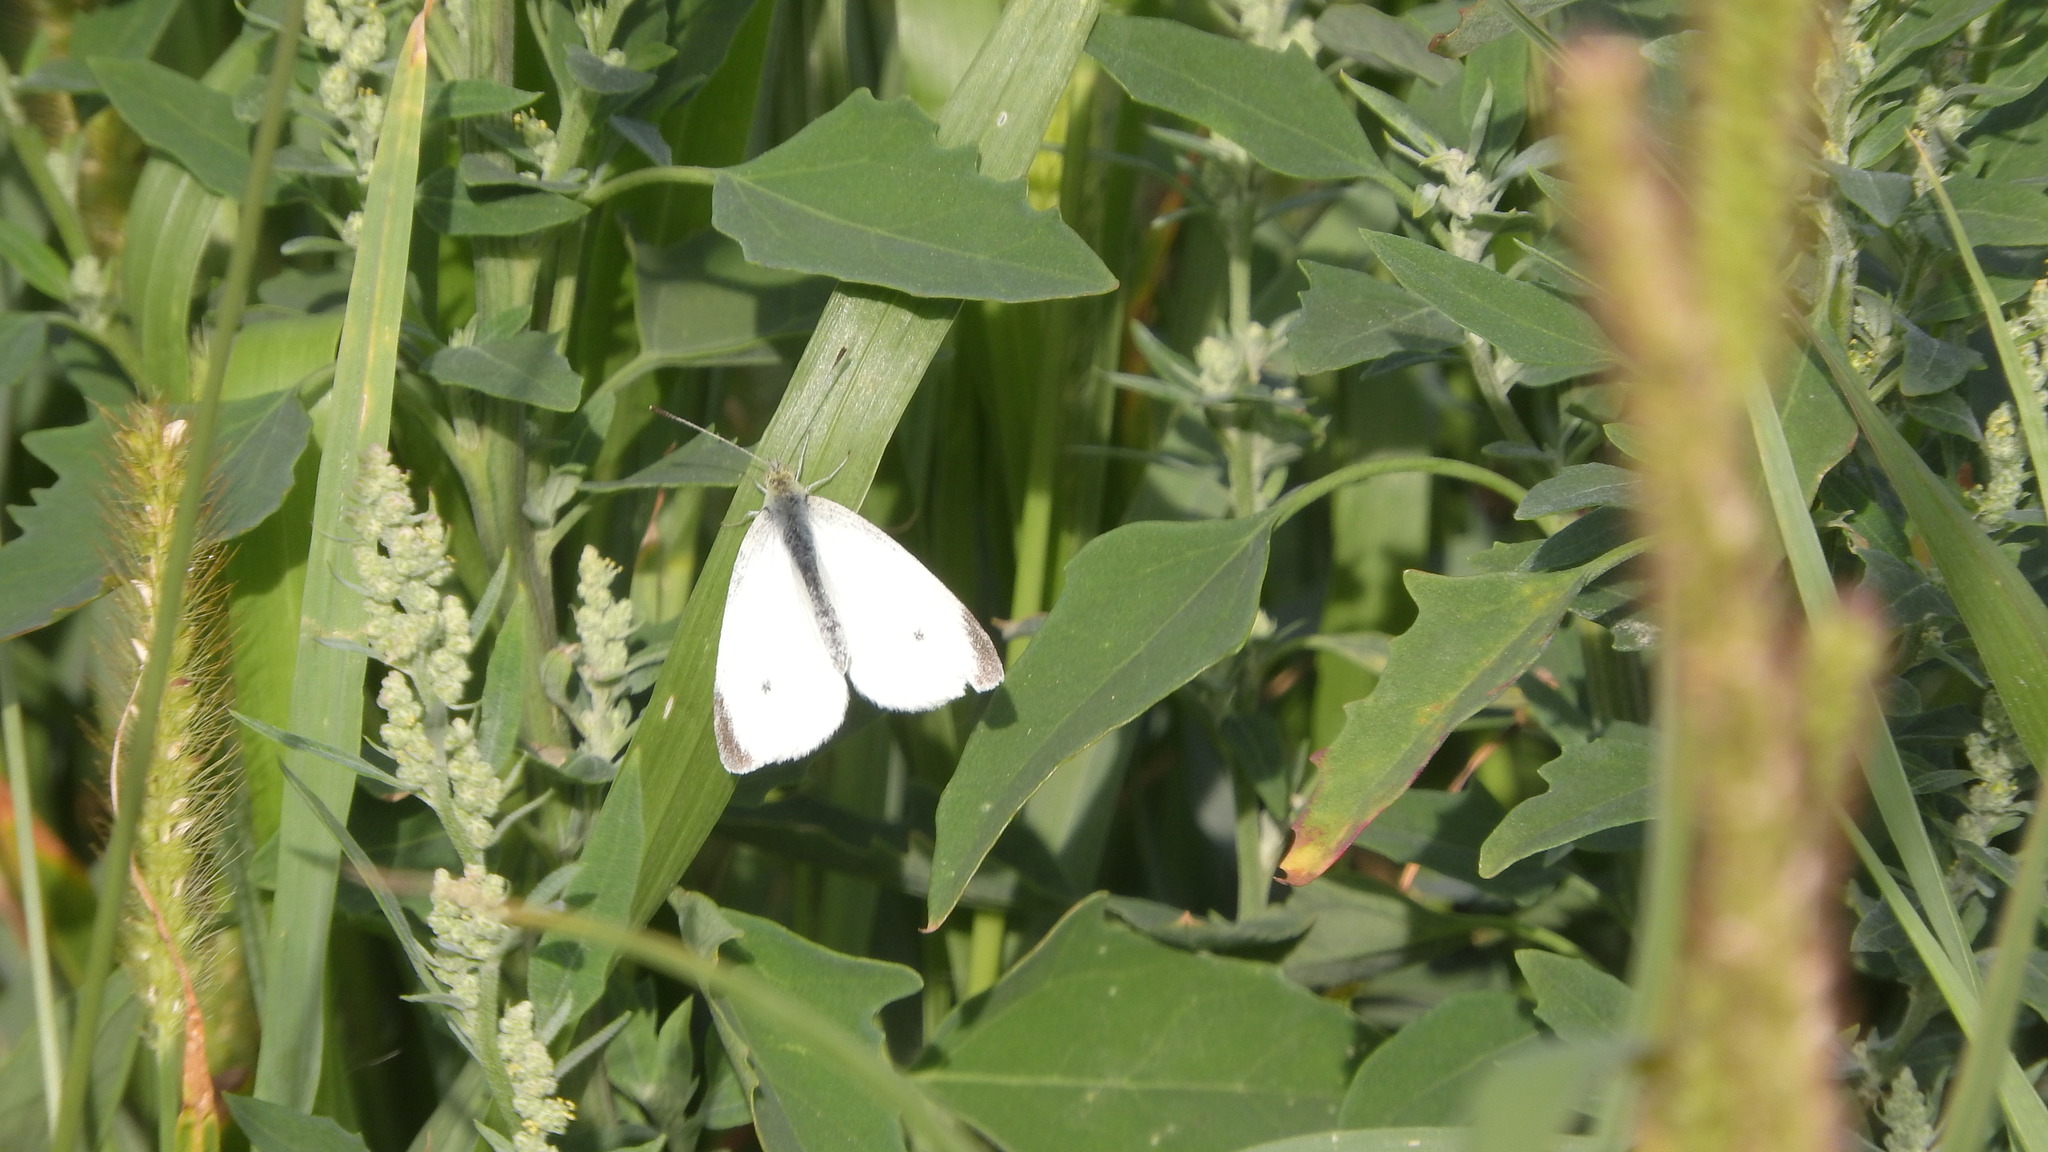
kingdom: Animalia
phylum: Arthropoda
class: Insecta
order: Lepidoptera
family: Pieridae
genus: Pieris
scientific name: Pieris rapae
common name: Small white
